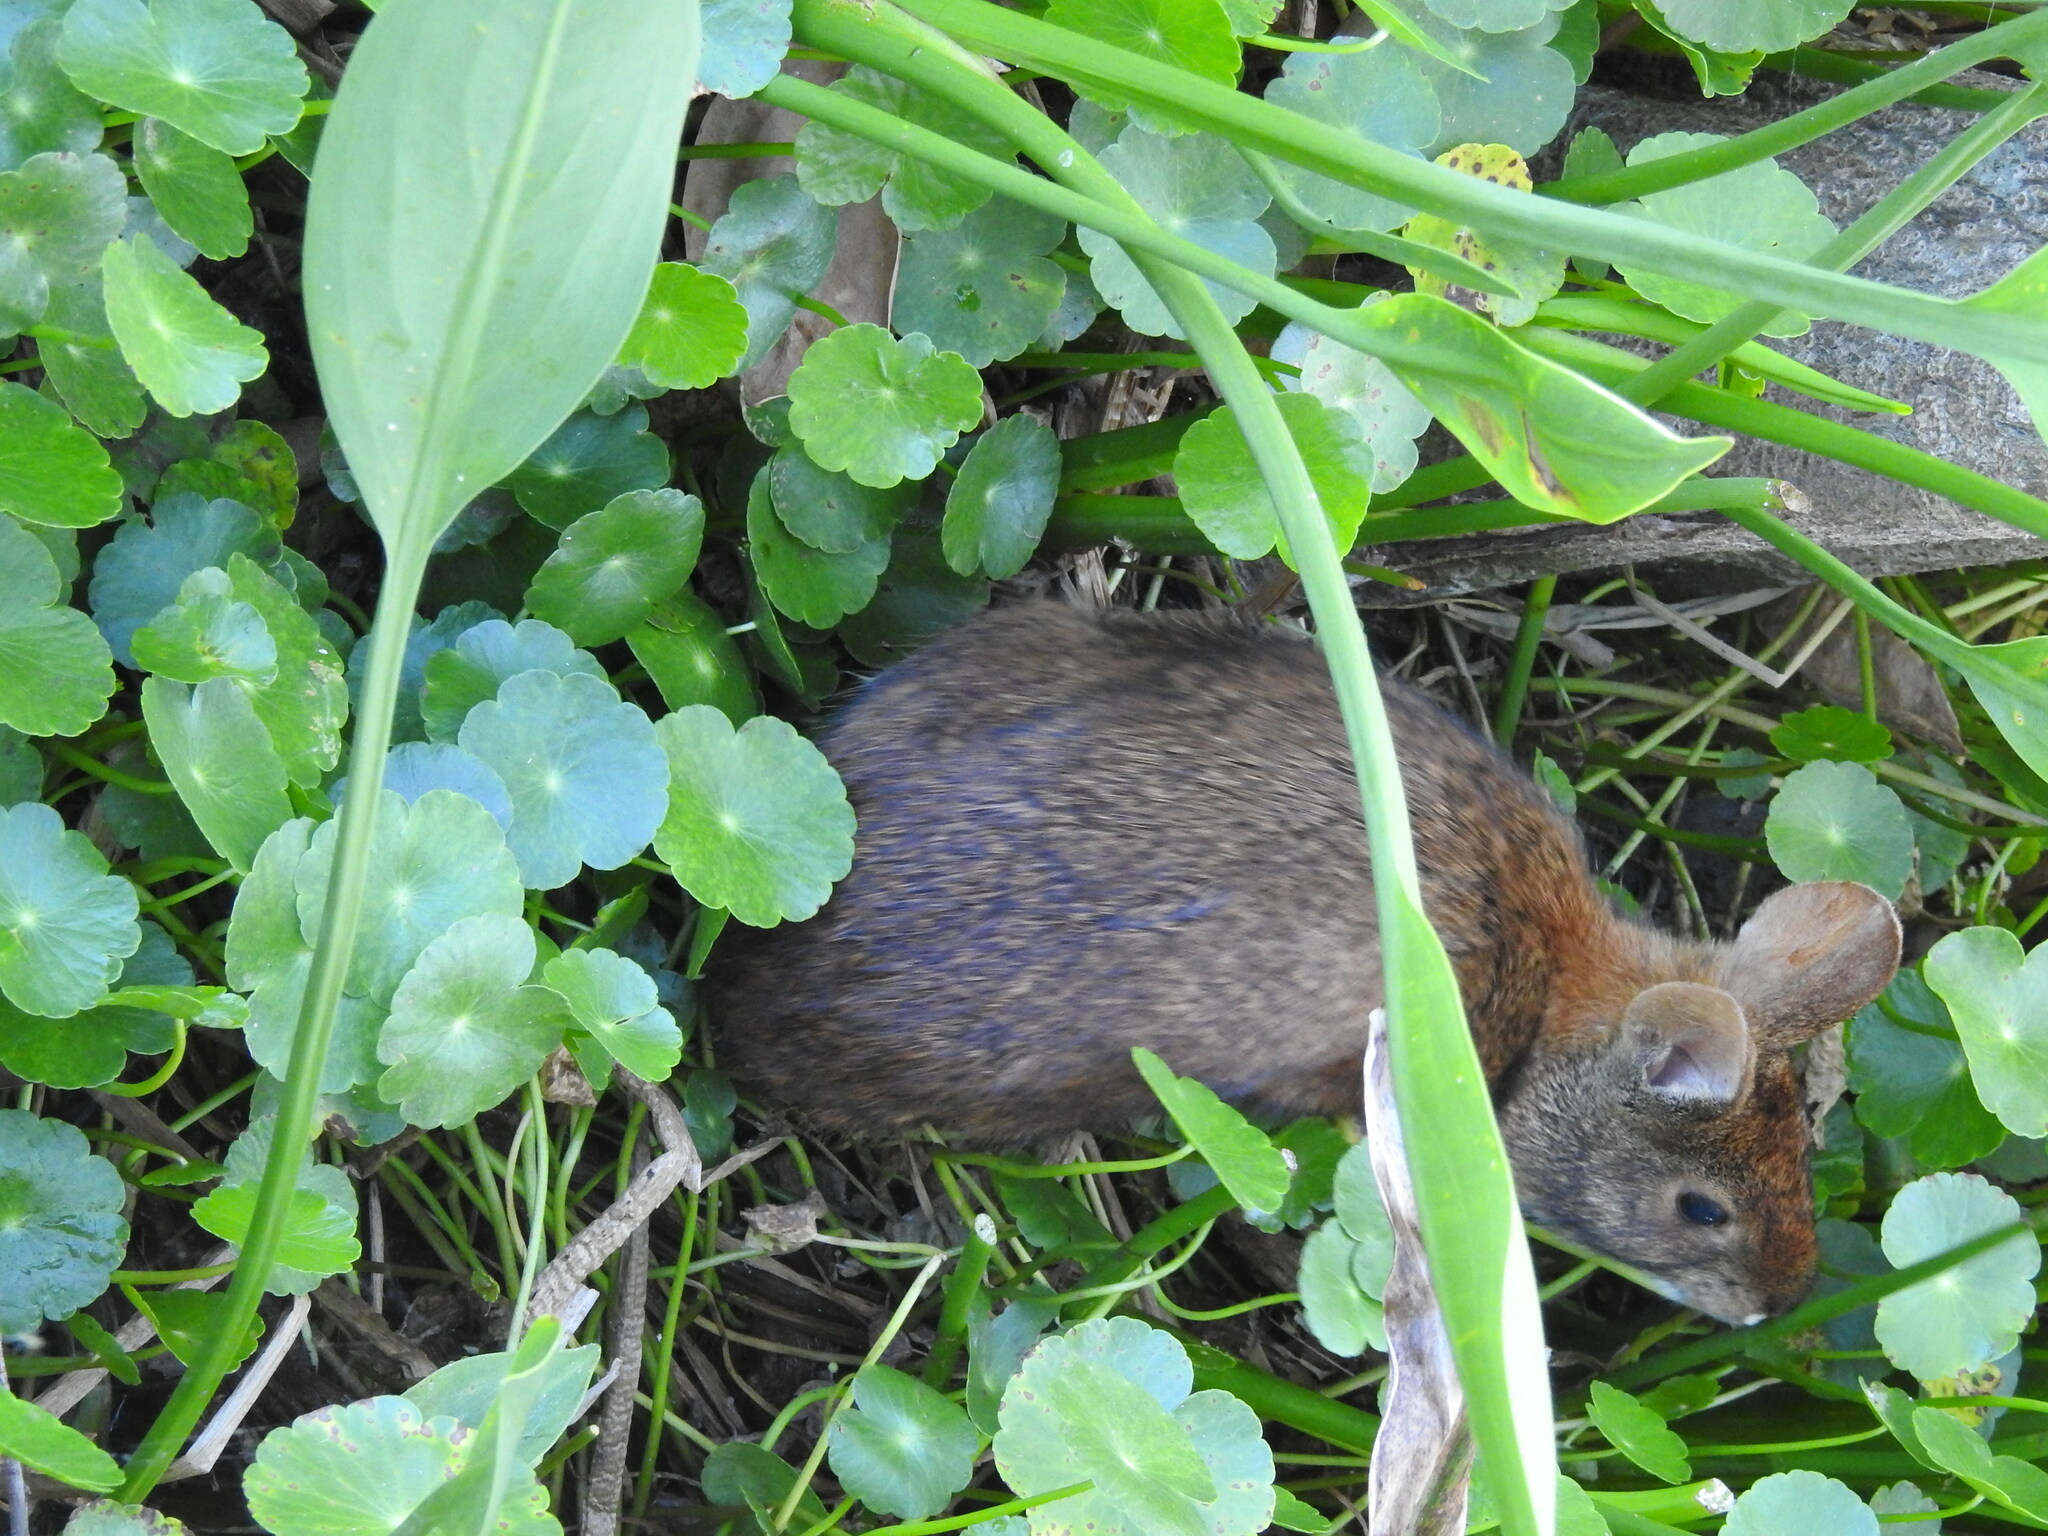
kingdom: Animalia
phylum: Chordata
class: Mammalia
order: Lagomorpha
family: Leporidae
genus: Sylvilagus
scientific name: Sylvilagus palustris
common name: Marsh rabbit
